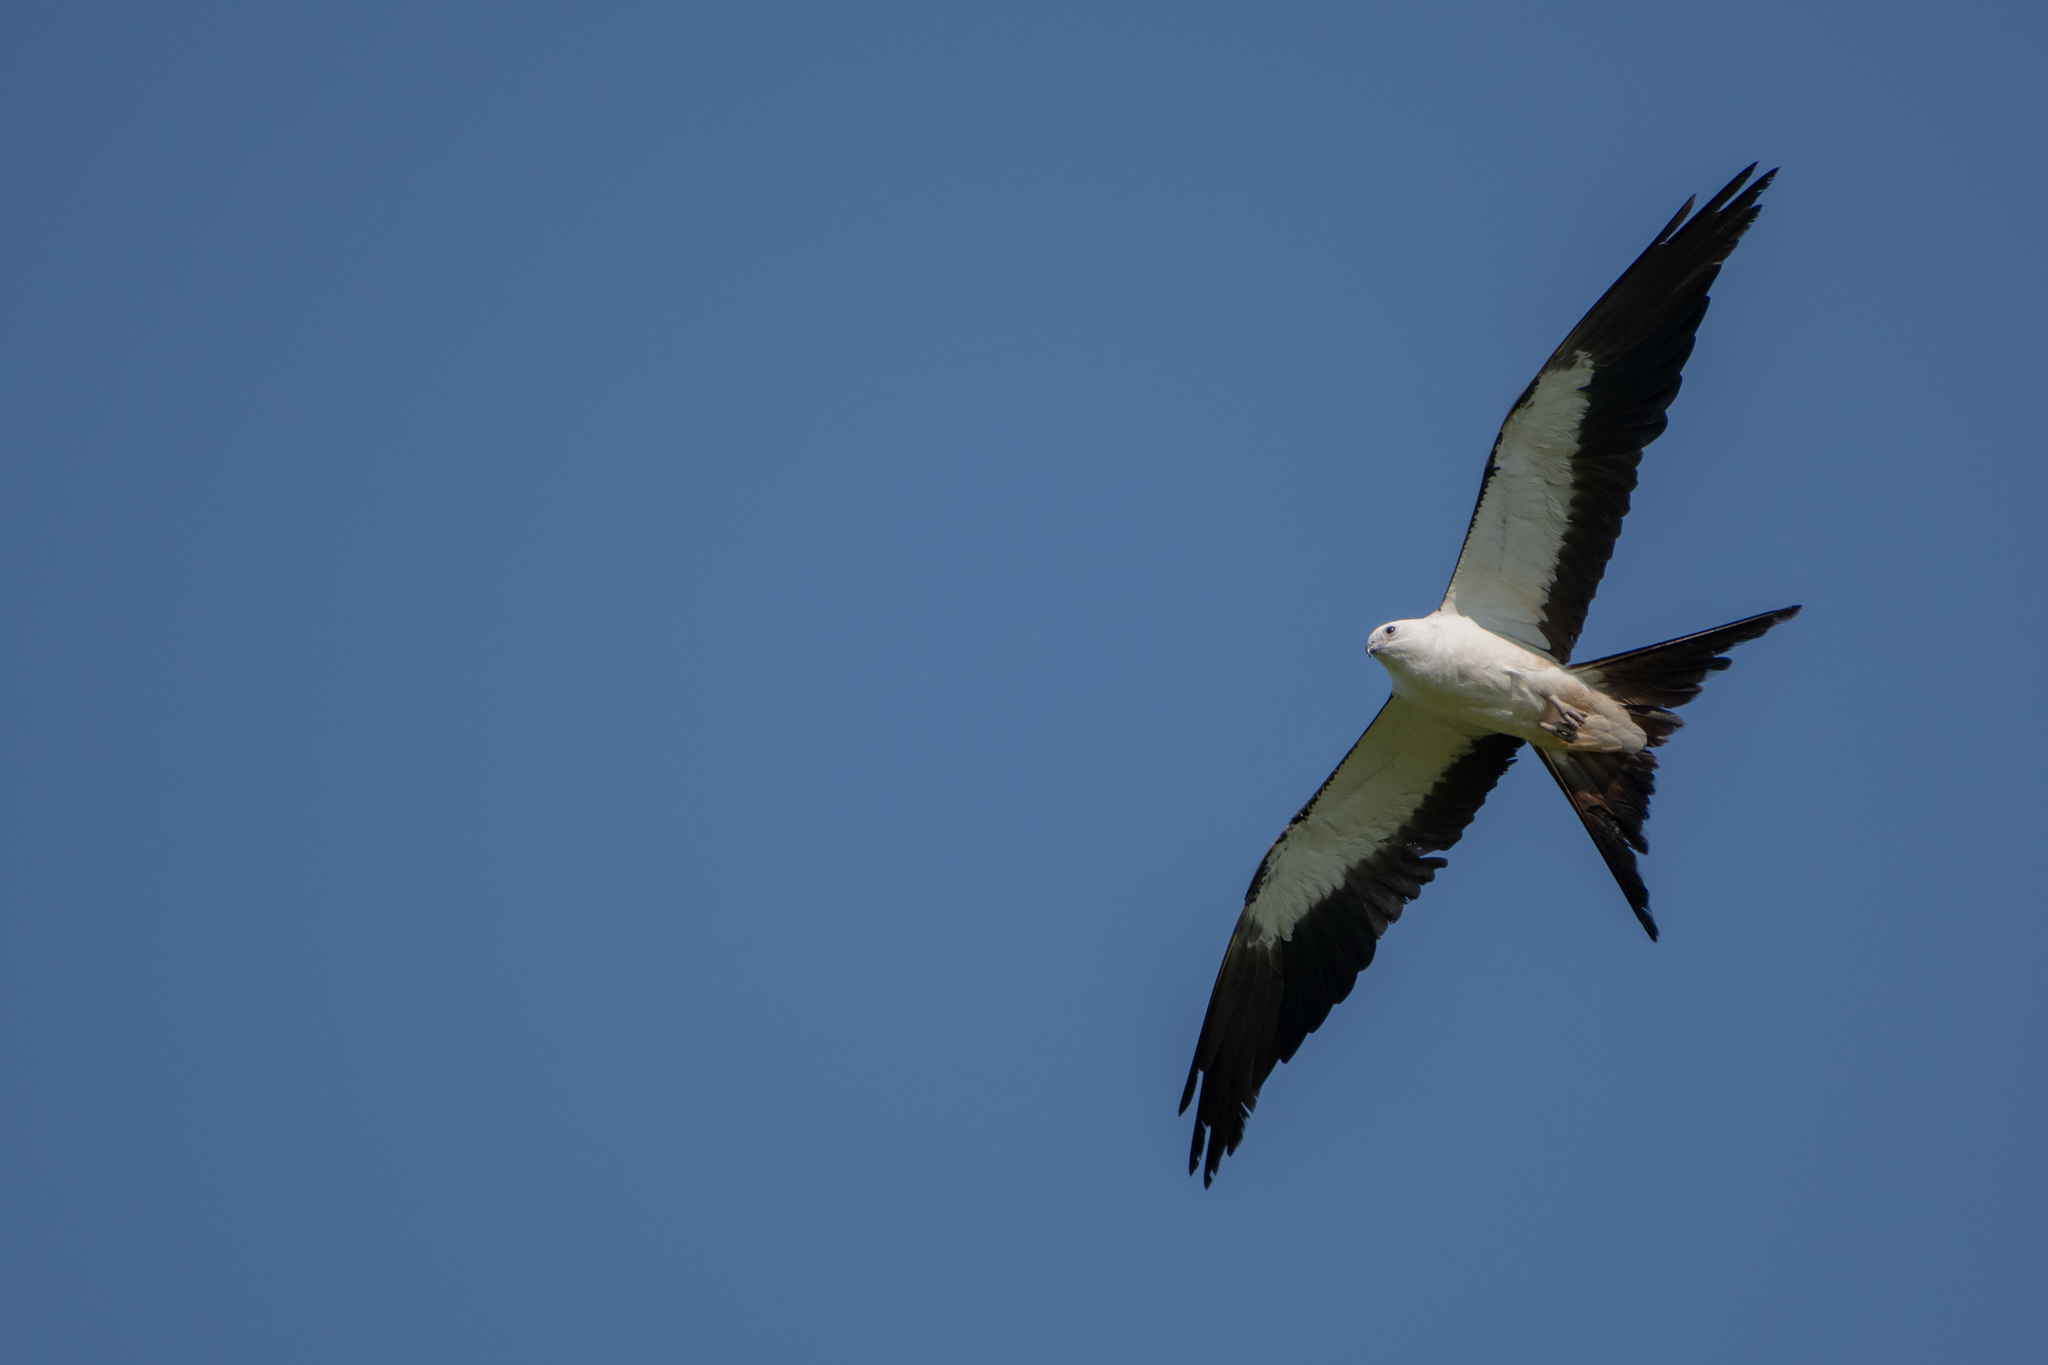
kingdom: Animalia
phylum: Chordata
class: Aves
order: Accipitriformes
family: Accipitridae
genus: Elanoides
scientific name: Elanoides forficatus
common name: Swallow-tailed kite
